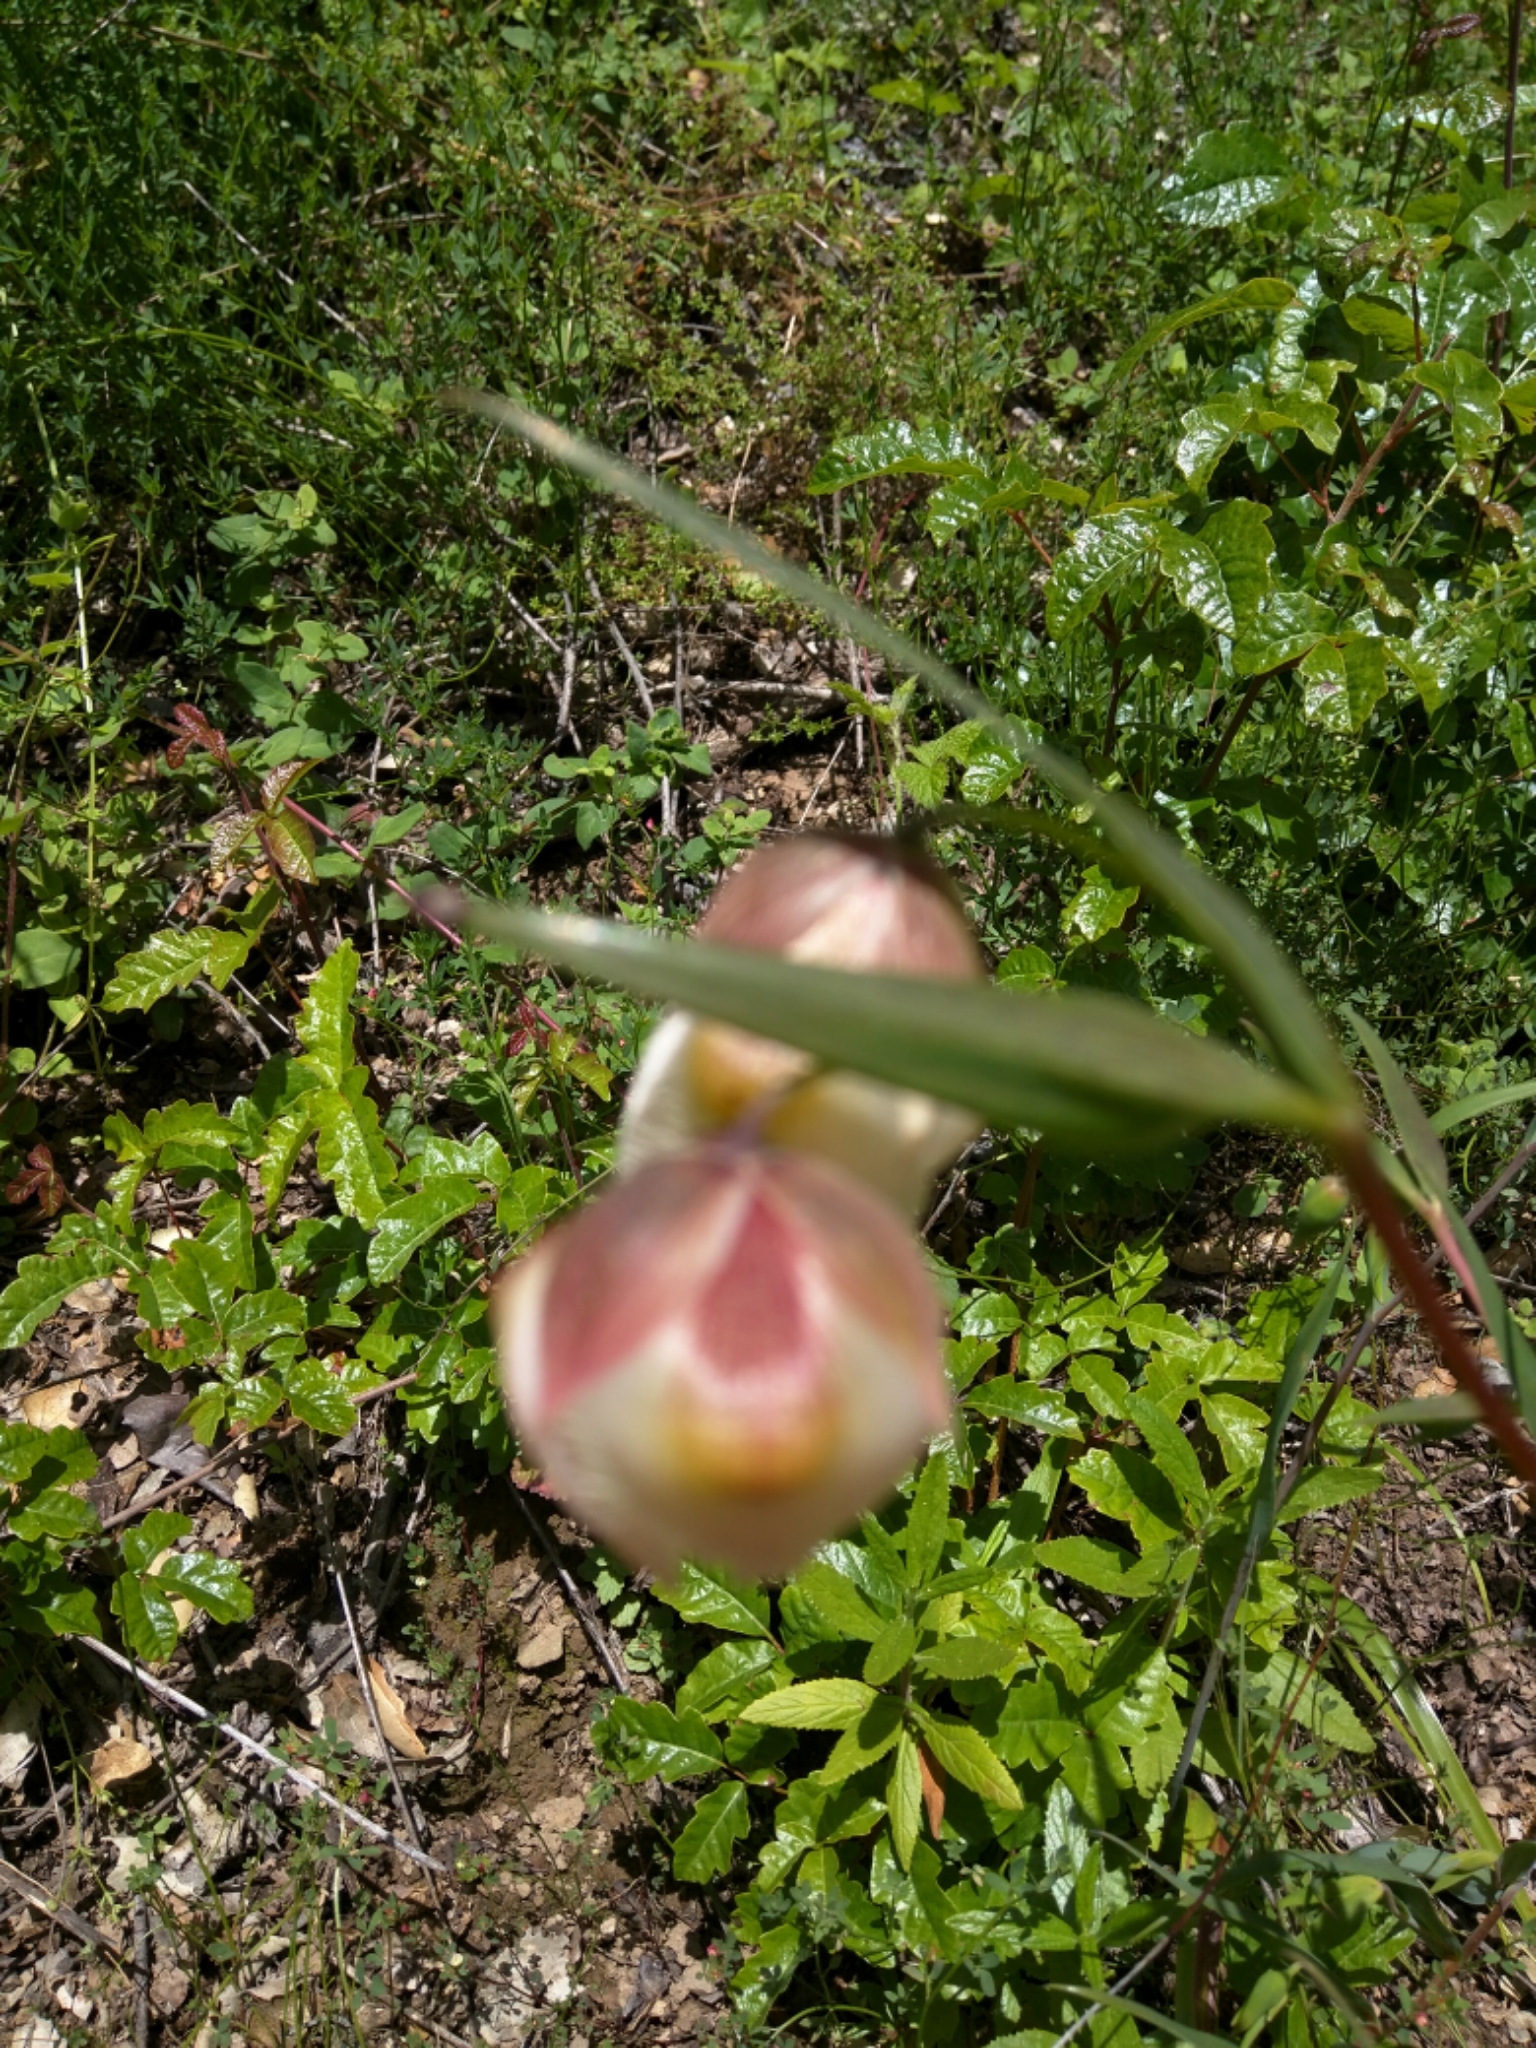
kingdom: Plantae
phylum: Tracheophyta
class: Liliopsida
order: Liliales
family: Liliaceae
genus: Calochortus
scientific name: Calochortus albus
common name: Fairy-lantern
